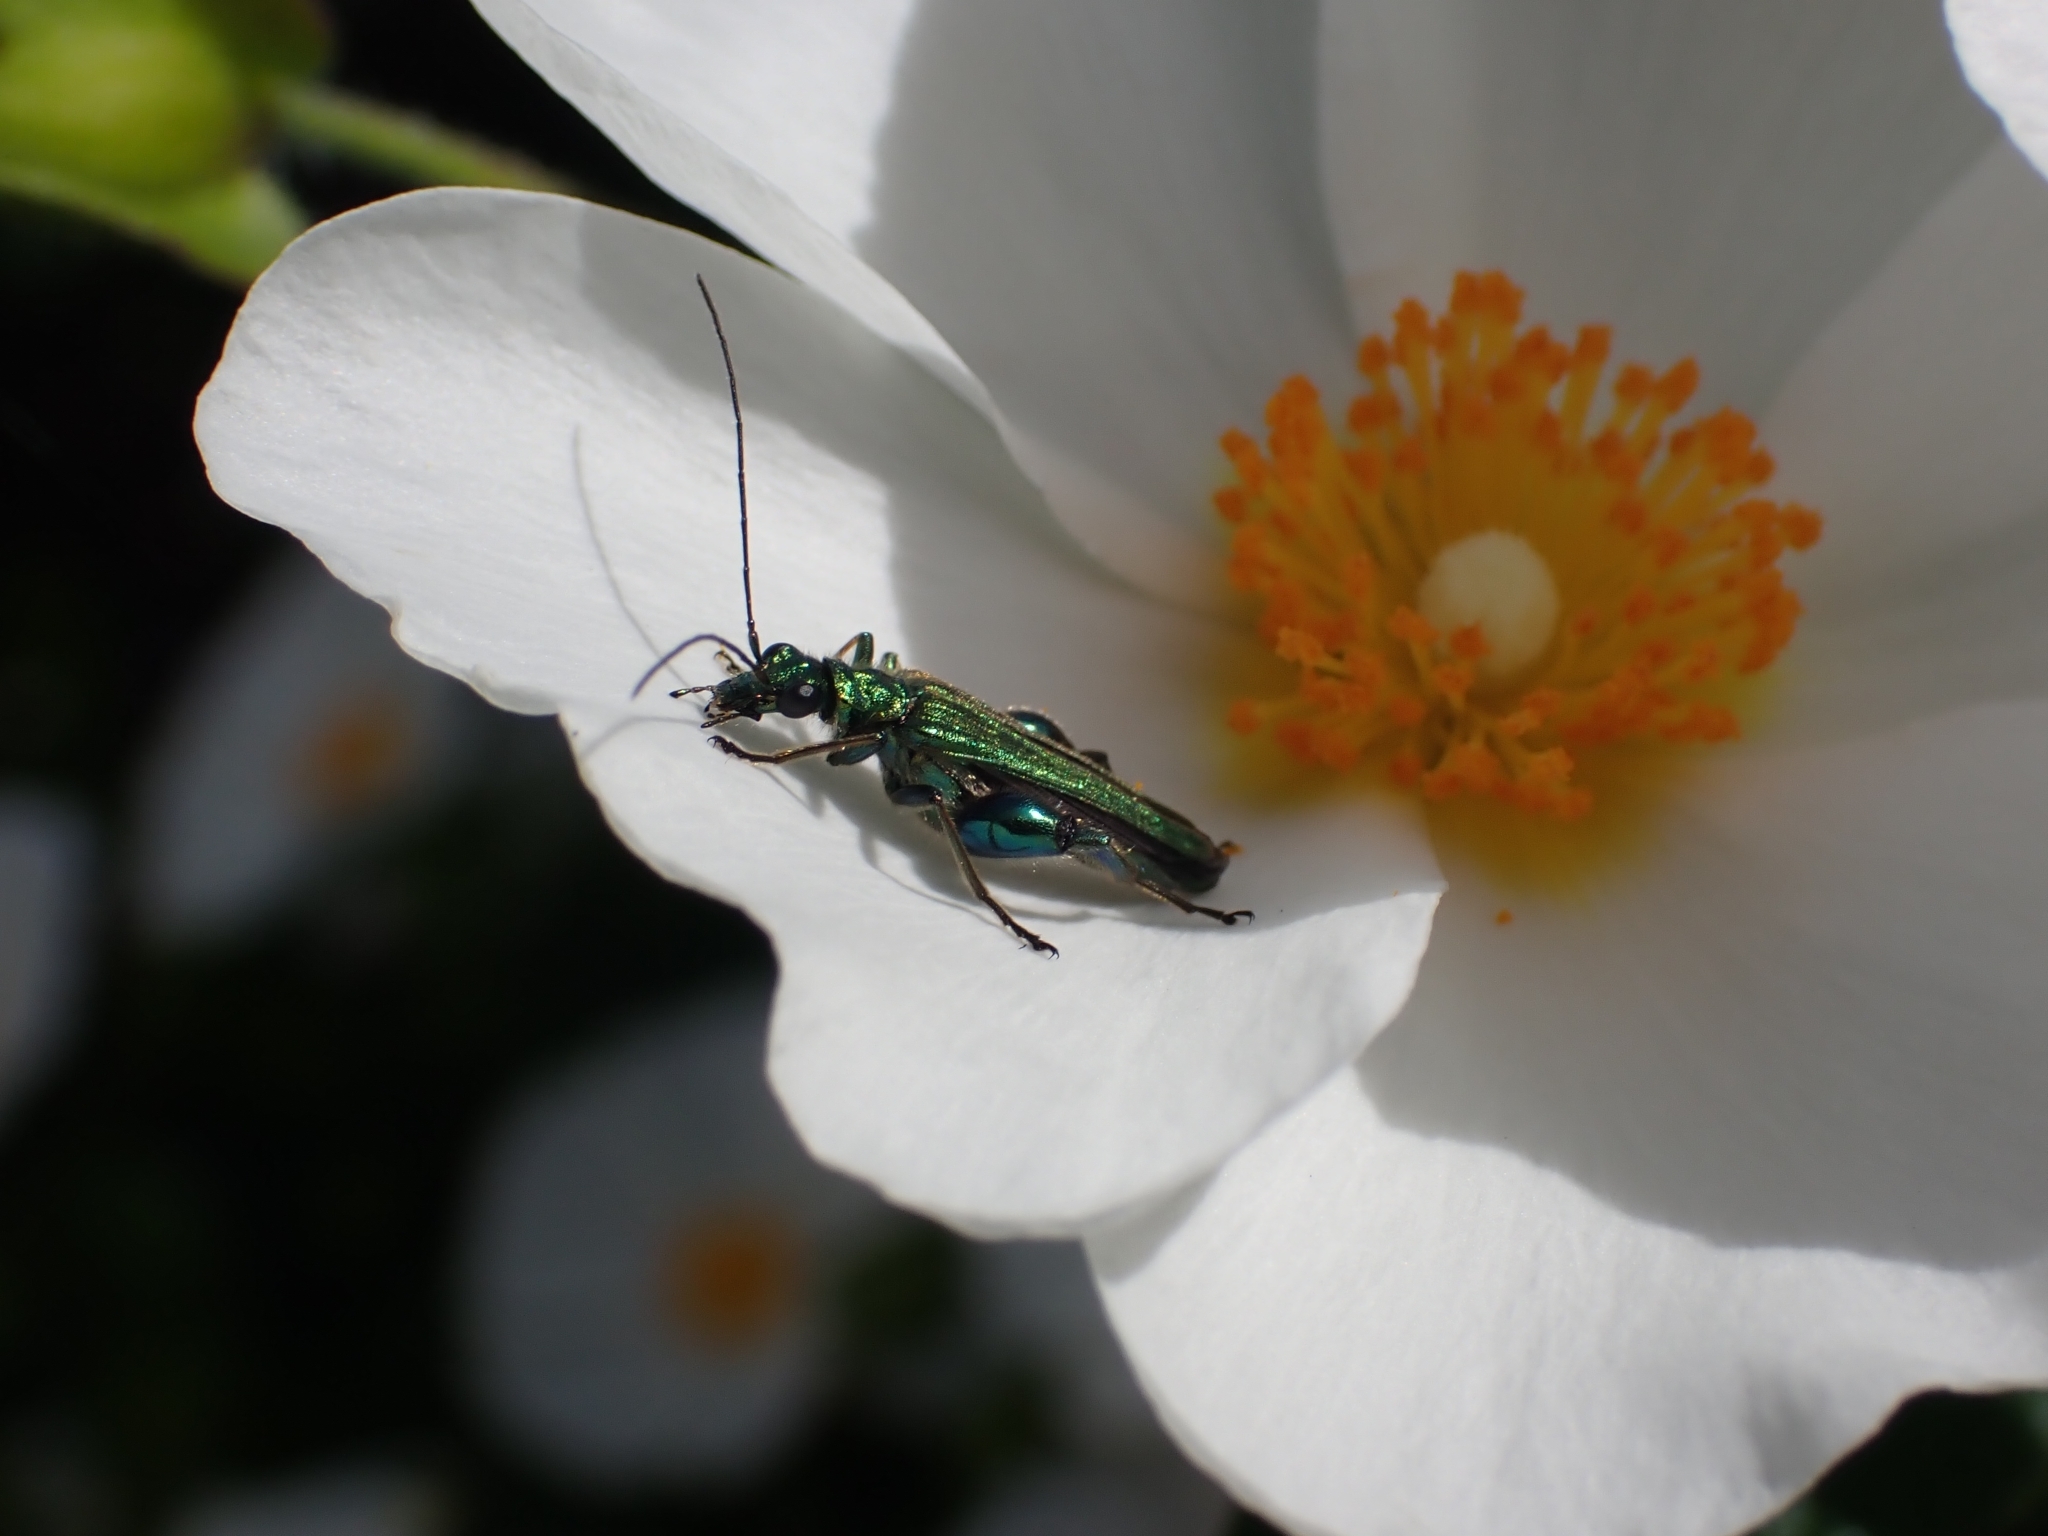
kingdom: Animalia
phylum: Arthropoda
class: Insecta
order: Coleoptera
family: Oedemeridae
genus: Oedemera
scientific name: Oedemera nobilis
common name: Swollen-thighed beetle
